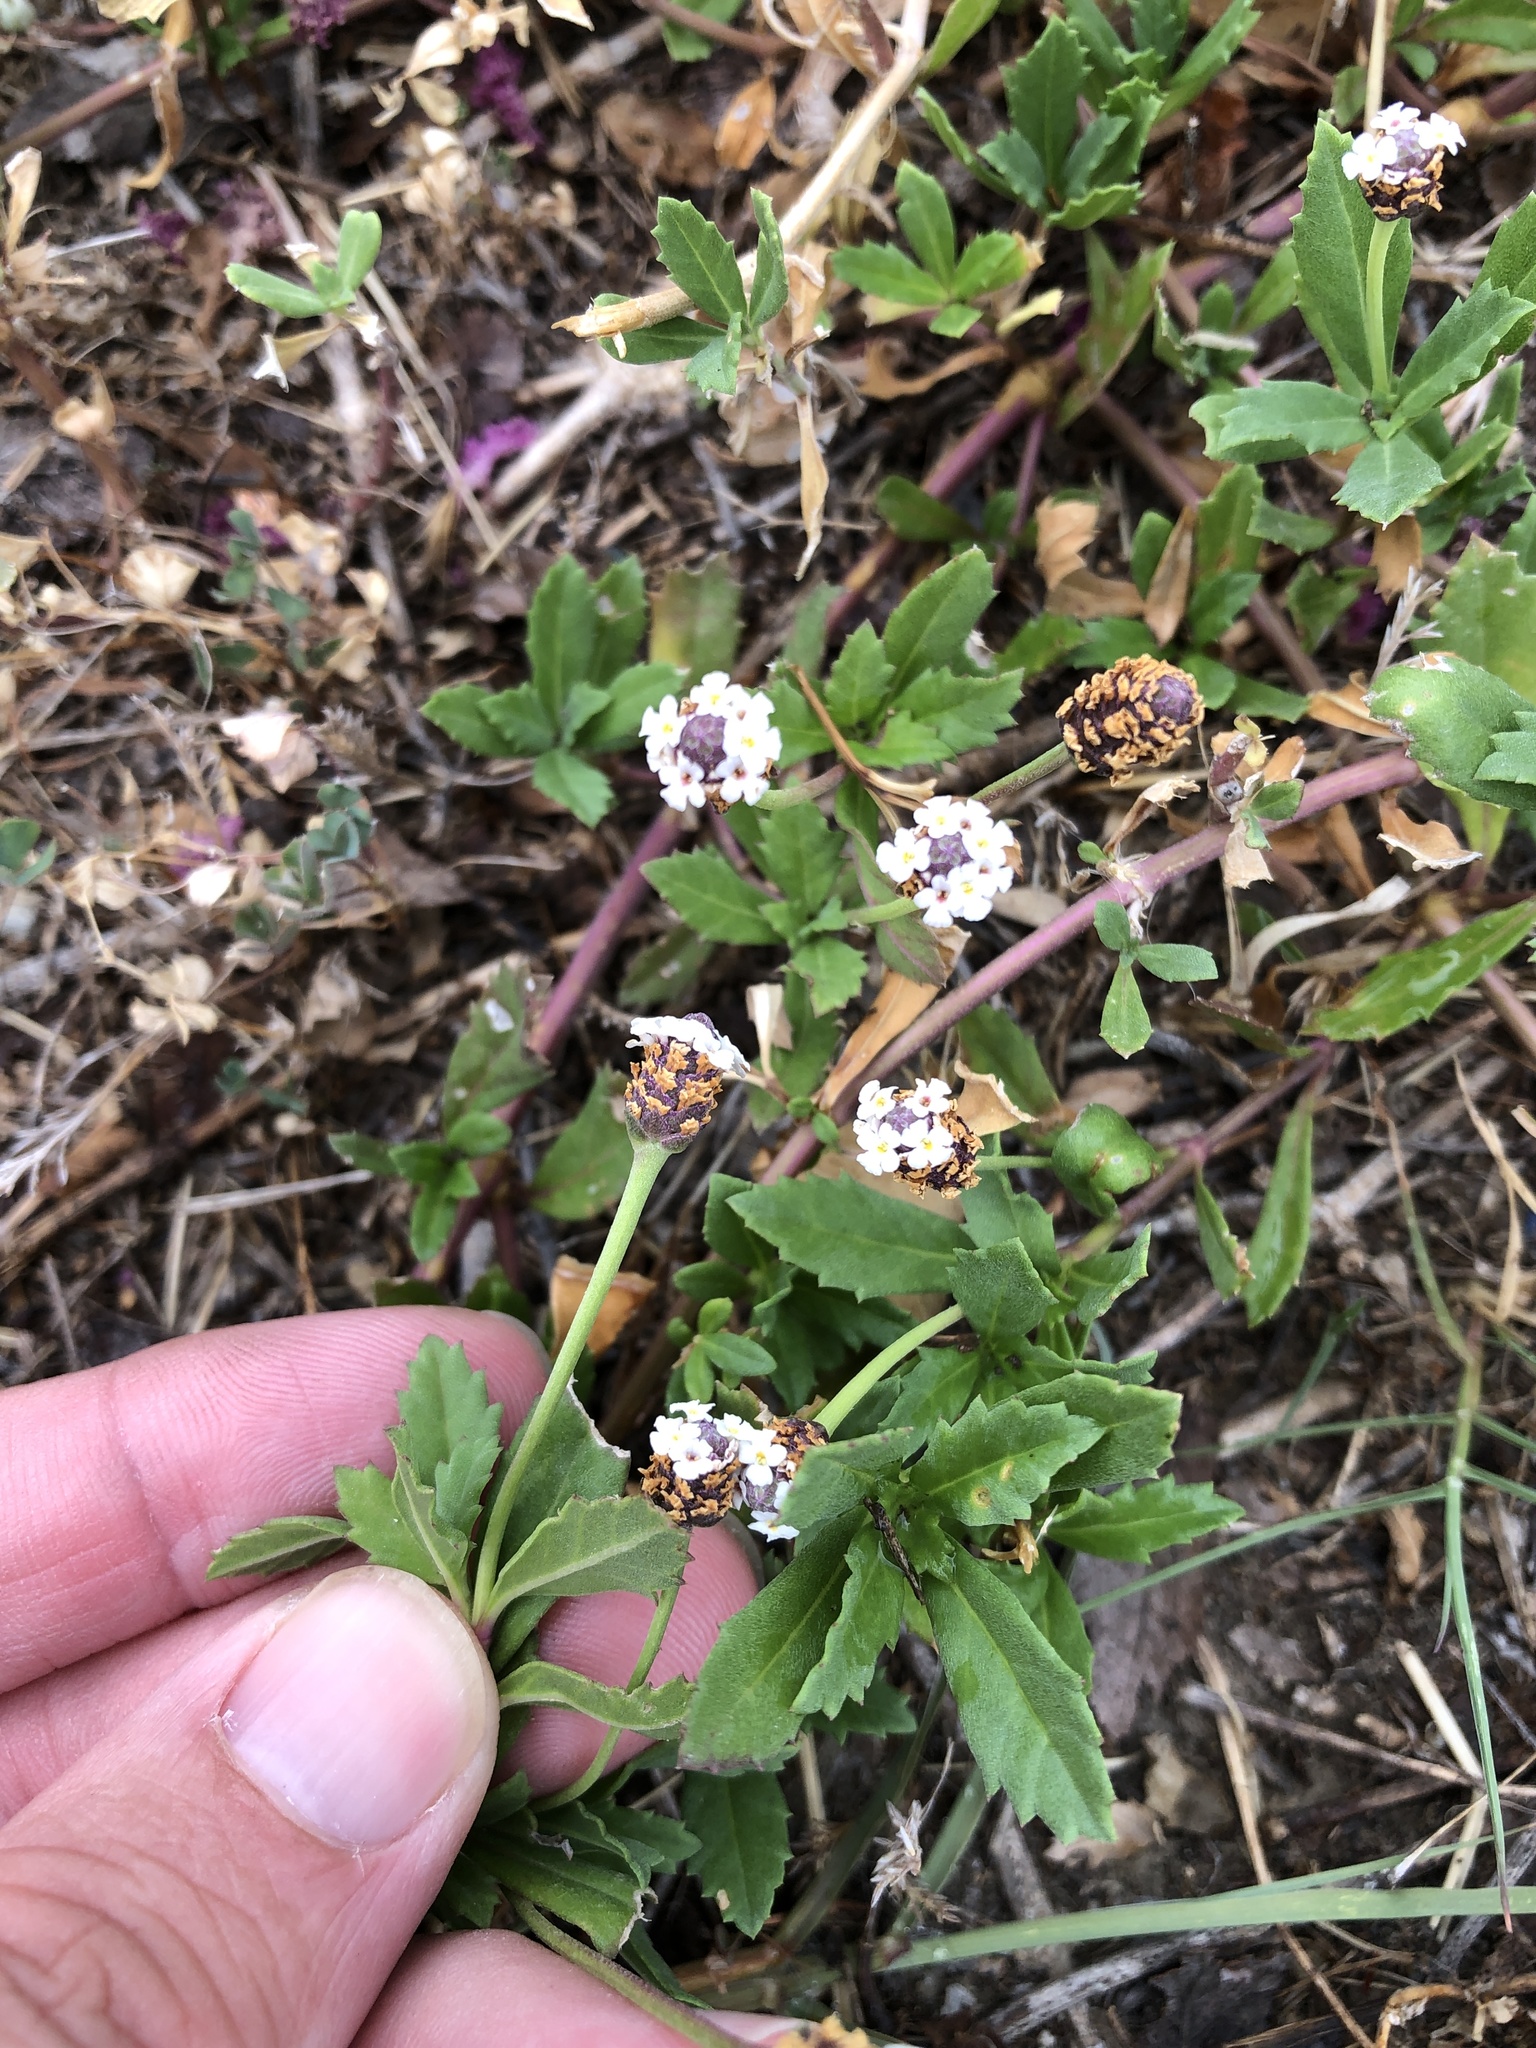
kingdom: Plantae
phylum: Tracheophyta
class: Magnoliopsida
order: Lamiales
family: Verbenaceae
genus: Phyla
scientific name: Phyla nodiflora
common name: Frogfruit
